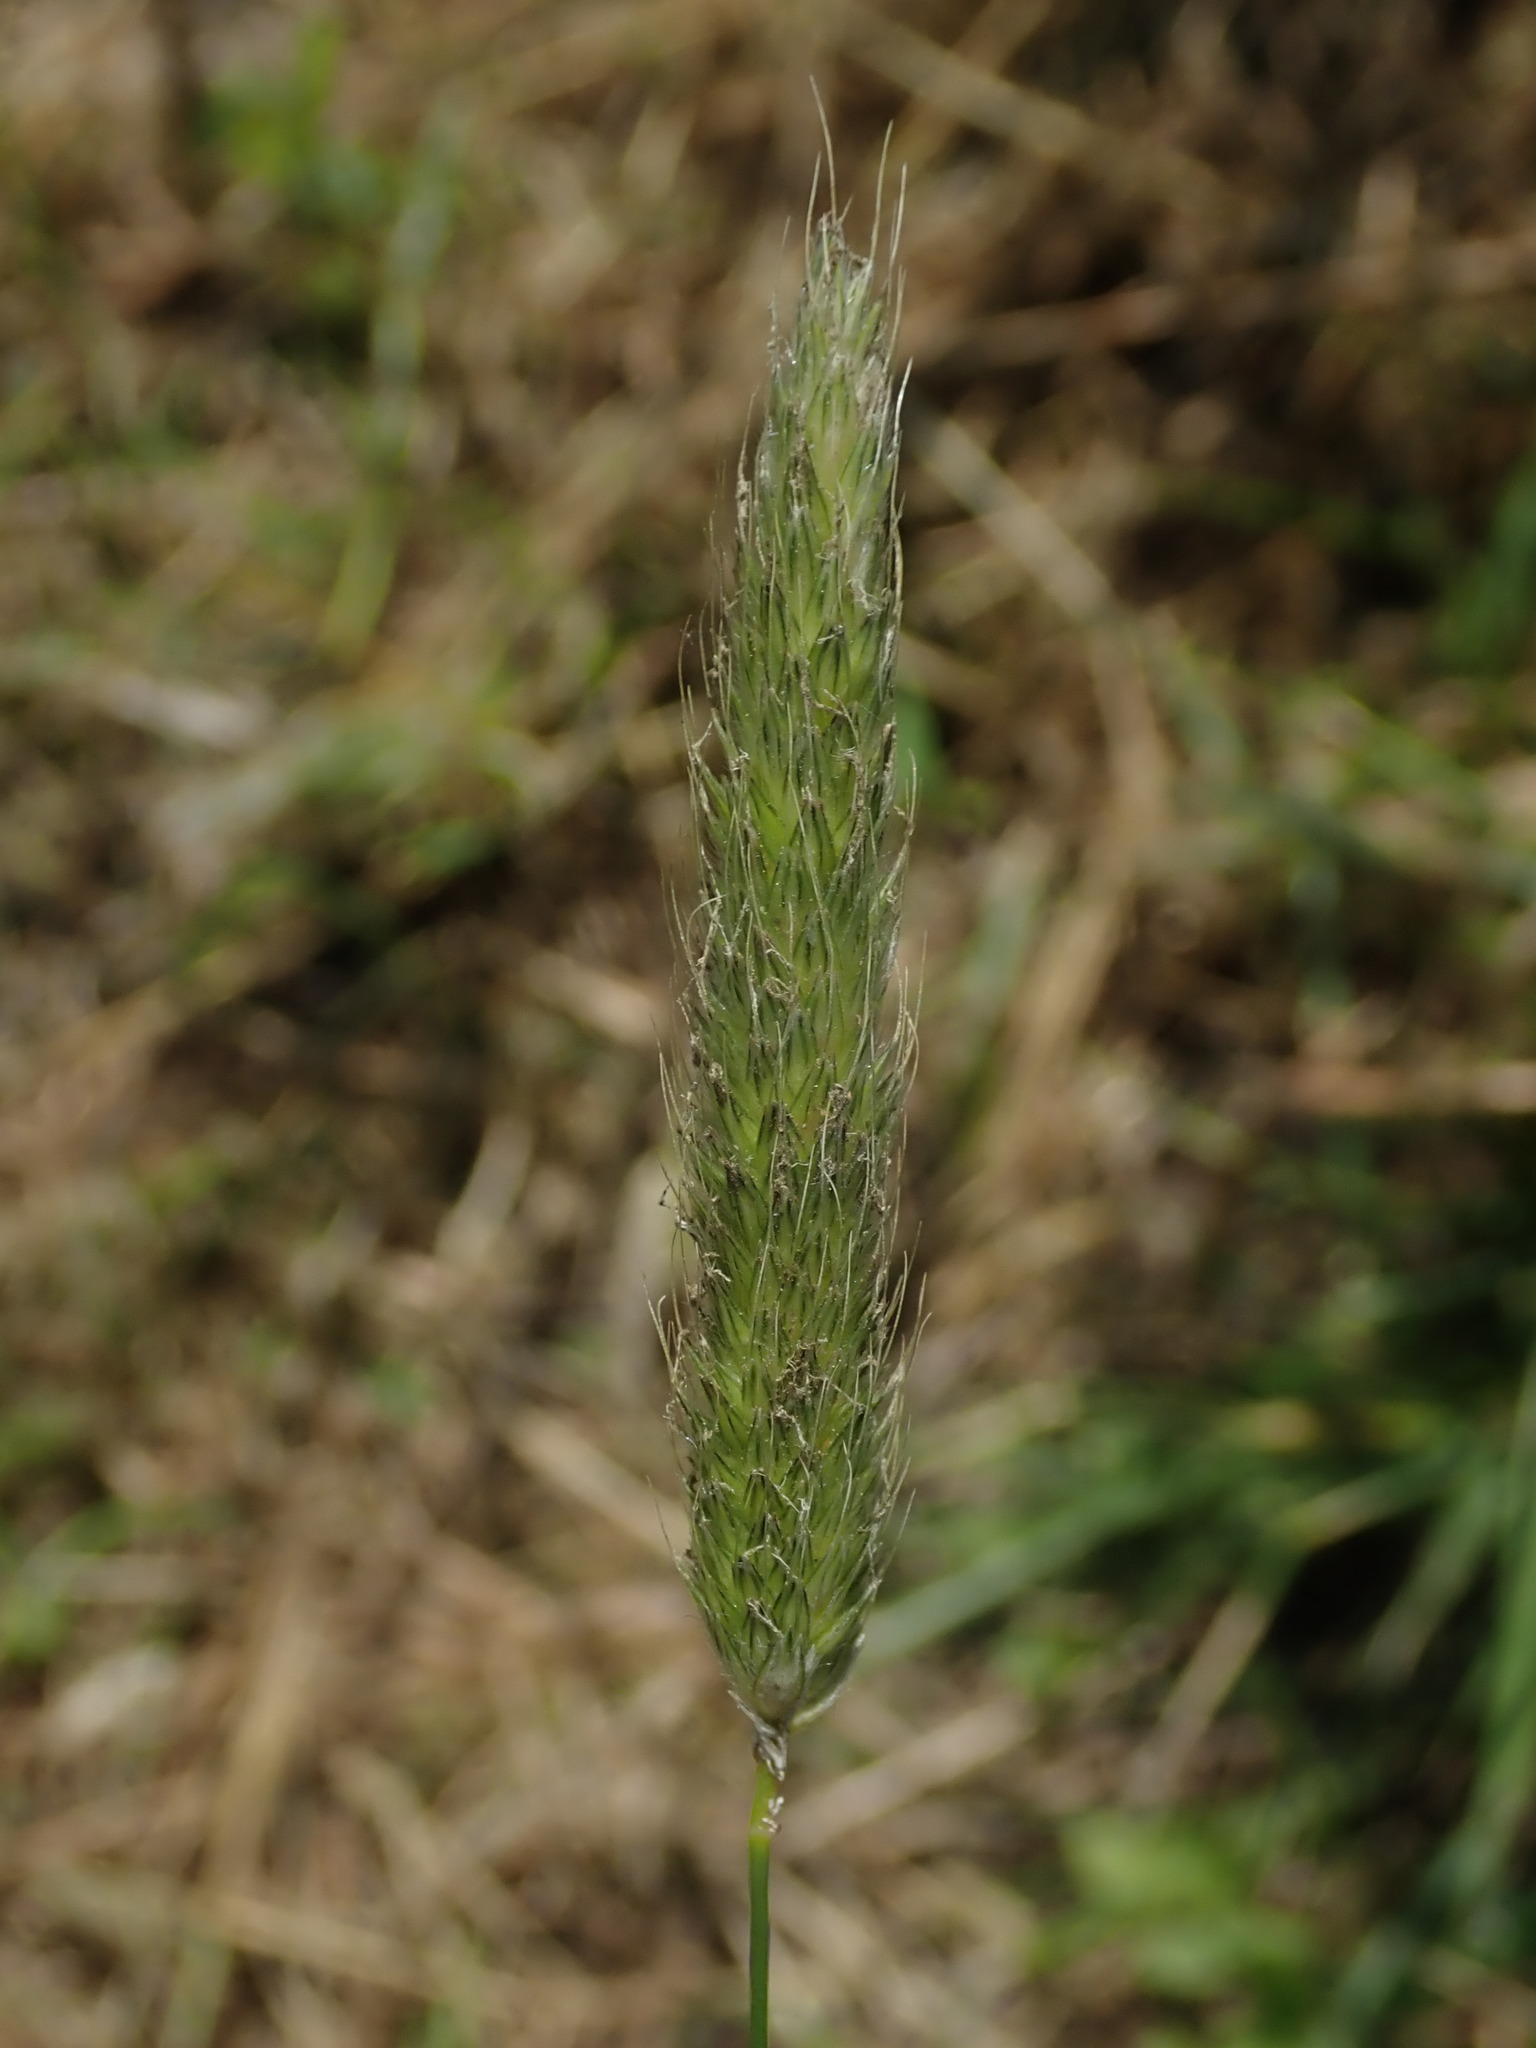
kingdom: Plantae
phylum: Tracheophyta
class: Liliopsida
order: Poales
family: Poaceae
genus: Alopecurus
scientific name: Alopecurus pratensis
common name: Meadow foxtail
